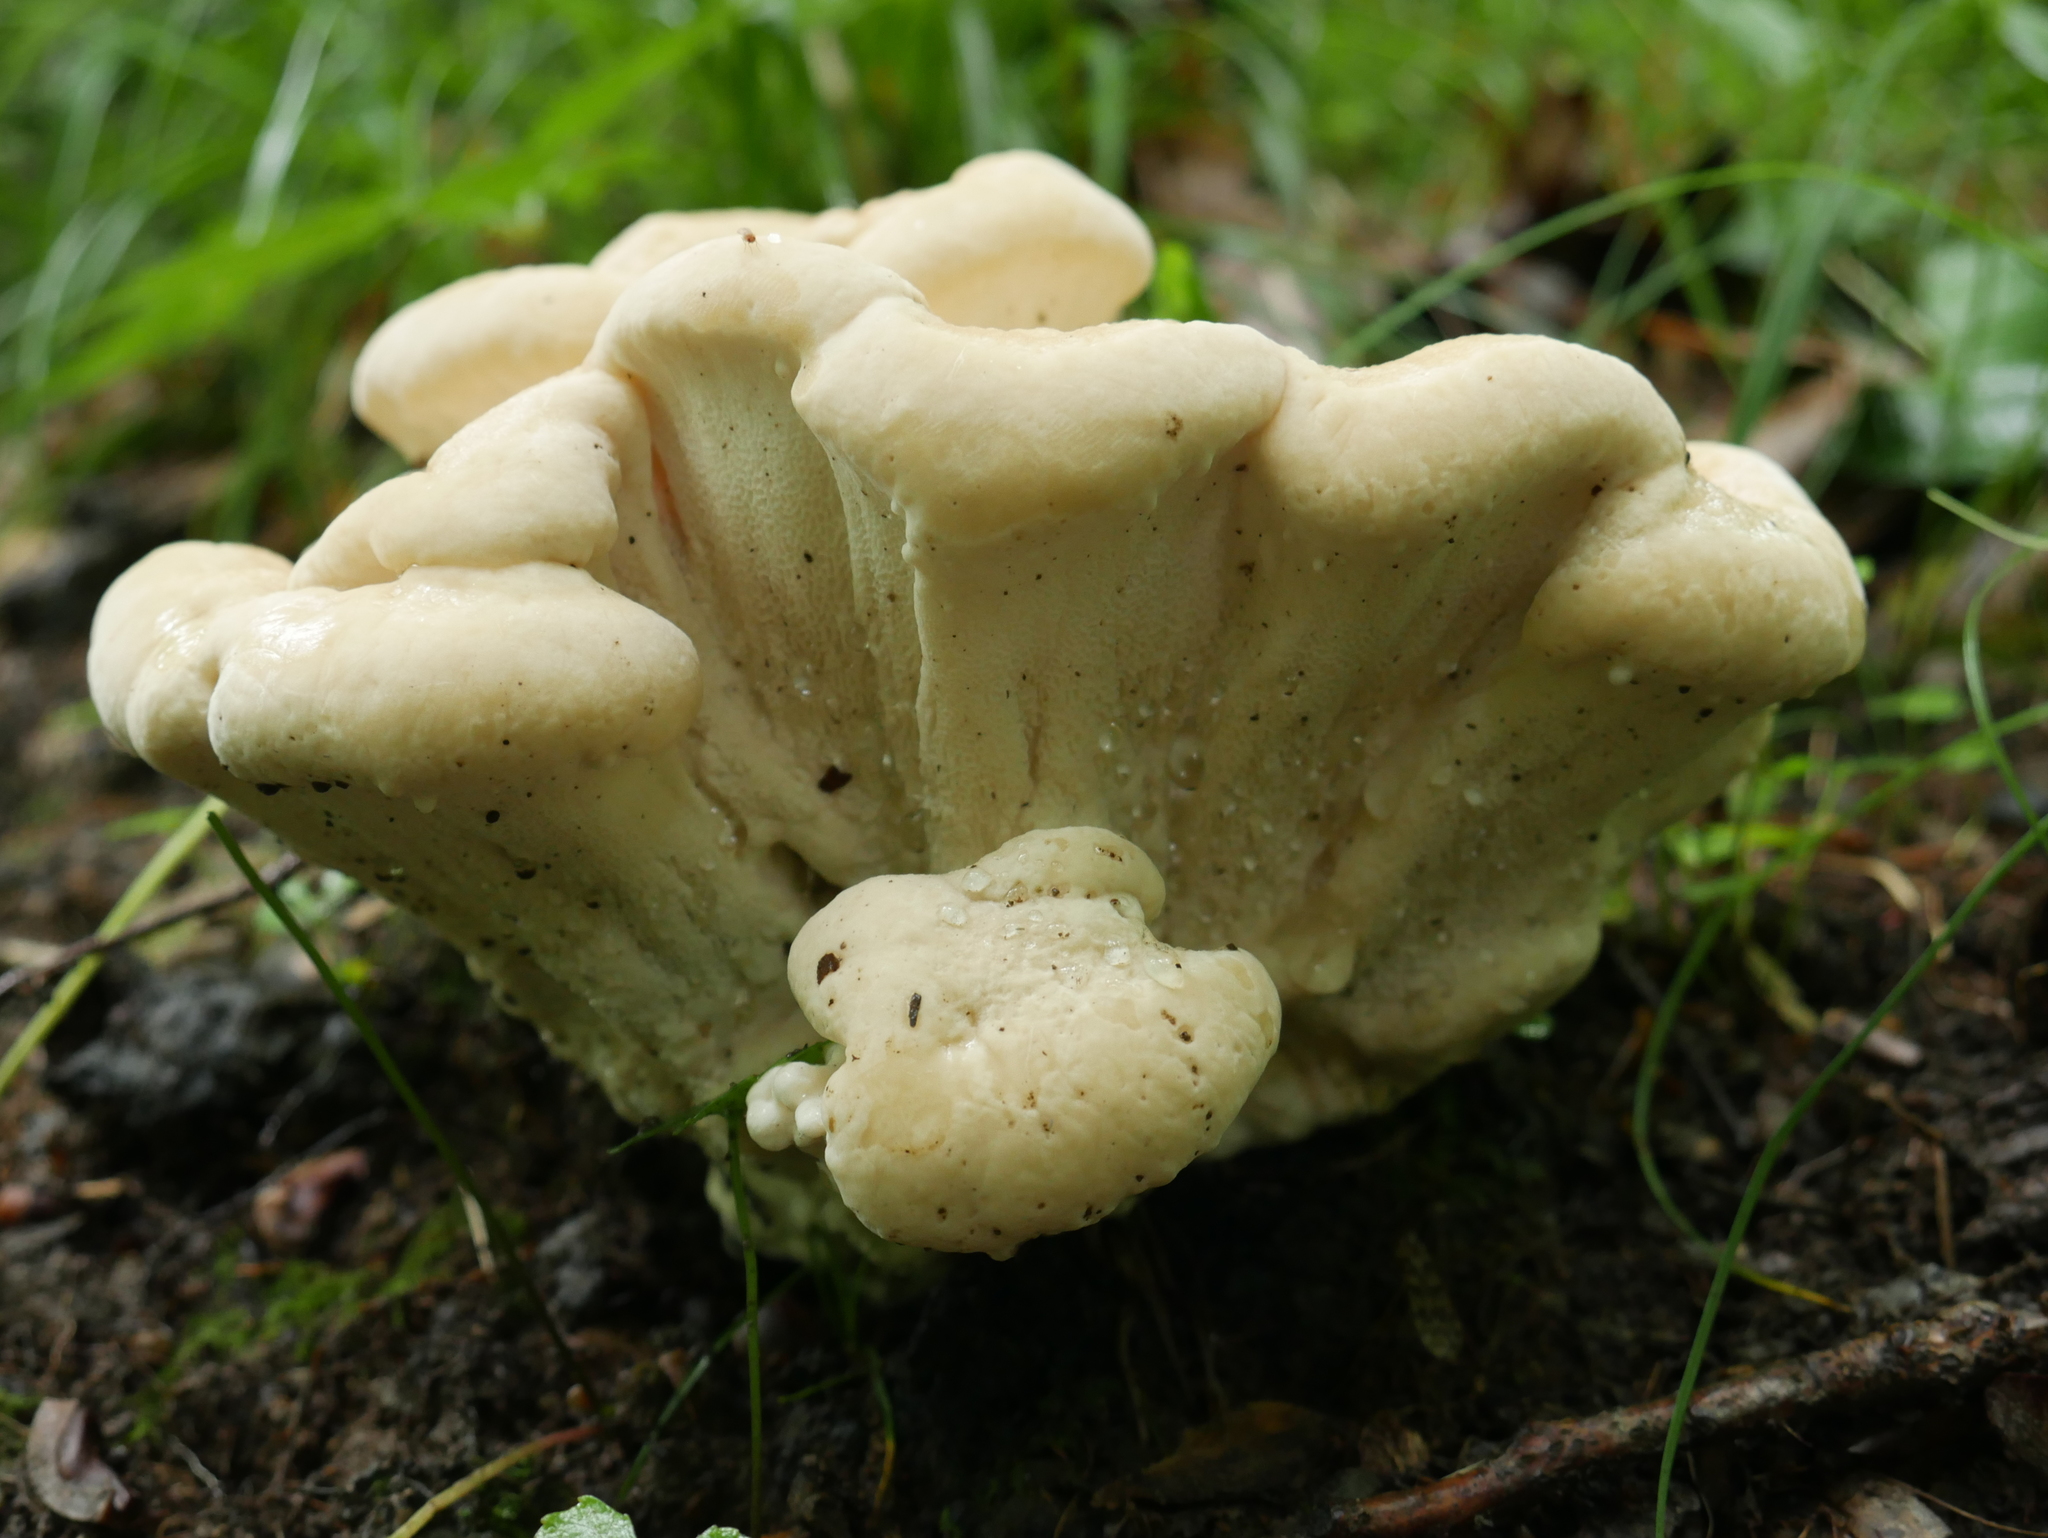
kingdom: Fungi
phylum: Basidiomycota
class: Agaricomycetes
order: Russulales
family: Bondarzewiaceae
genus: Bondarzewia
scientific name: Bondarzewia berkeleyi
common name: Berkeley's polypore
